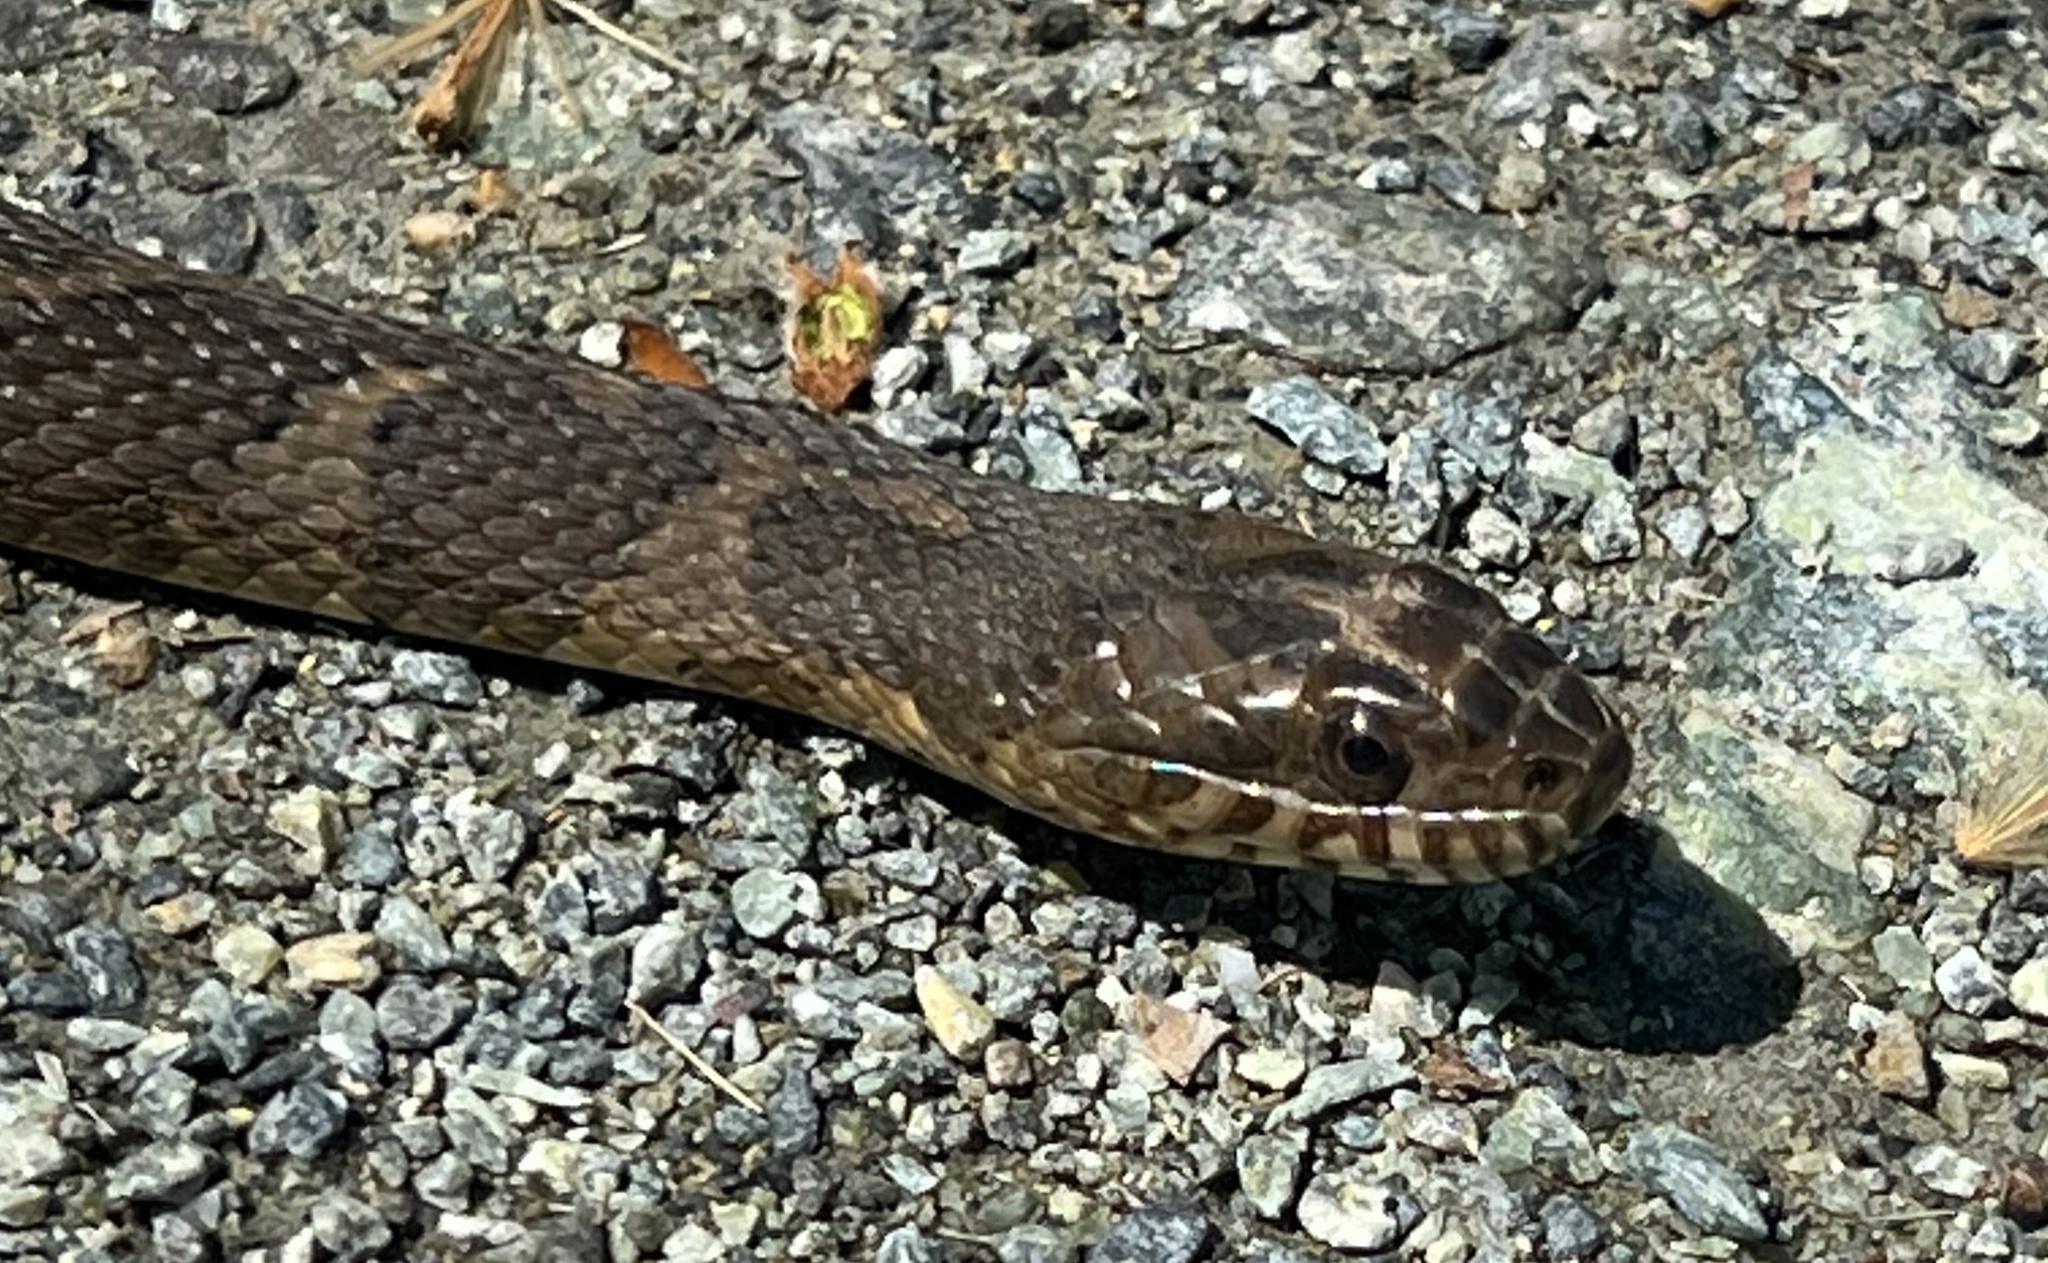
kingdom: Animalia
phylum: Chordata
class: Squamata
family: Colubridae
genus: Nerodia
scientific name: Nerodia sipedon
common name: Northern water snake
